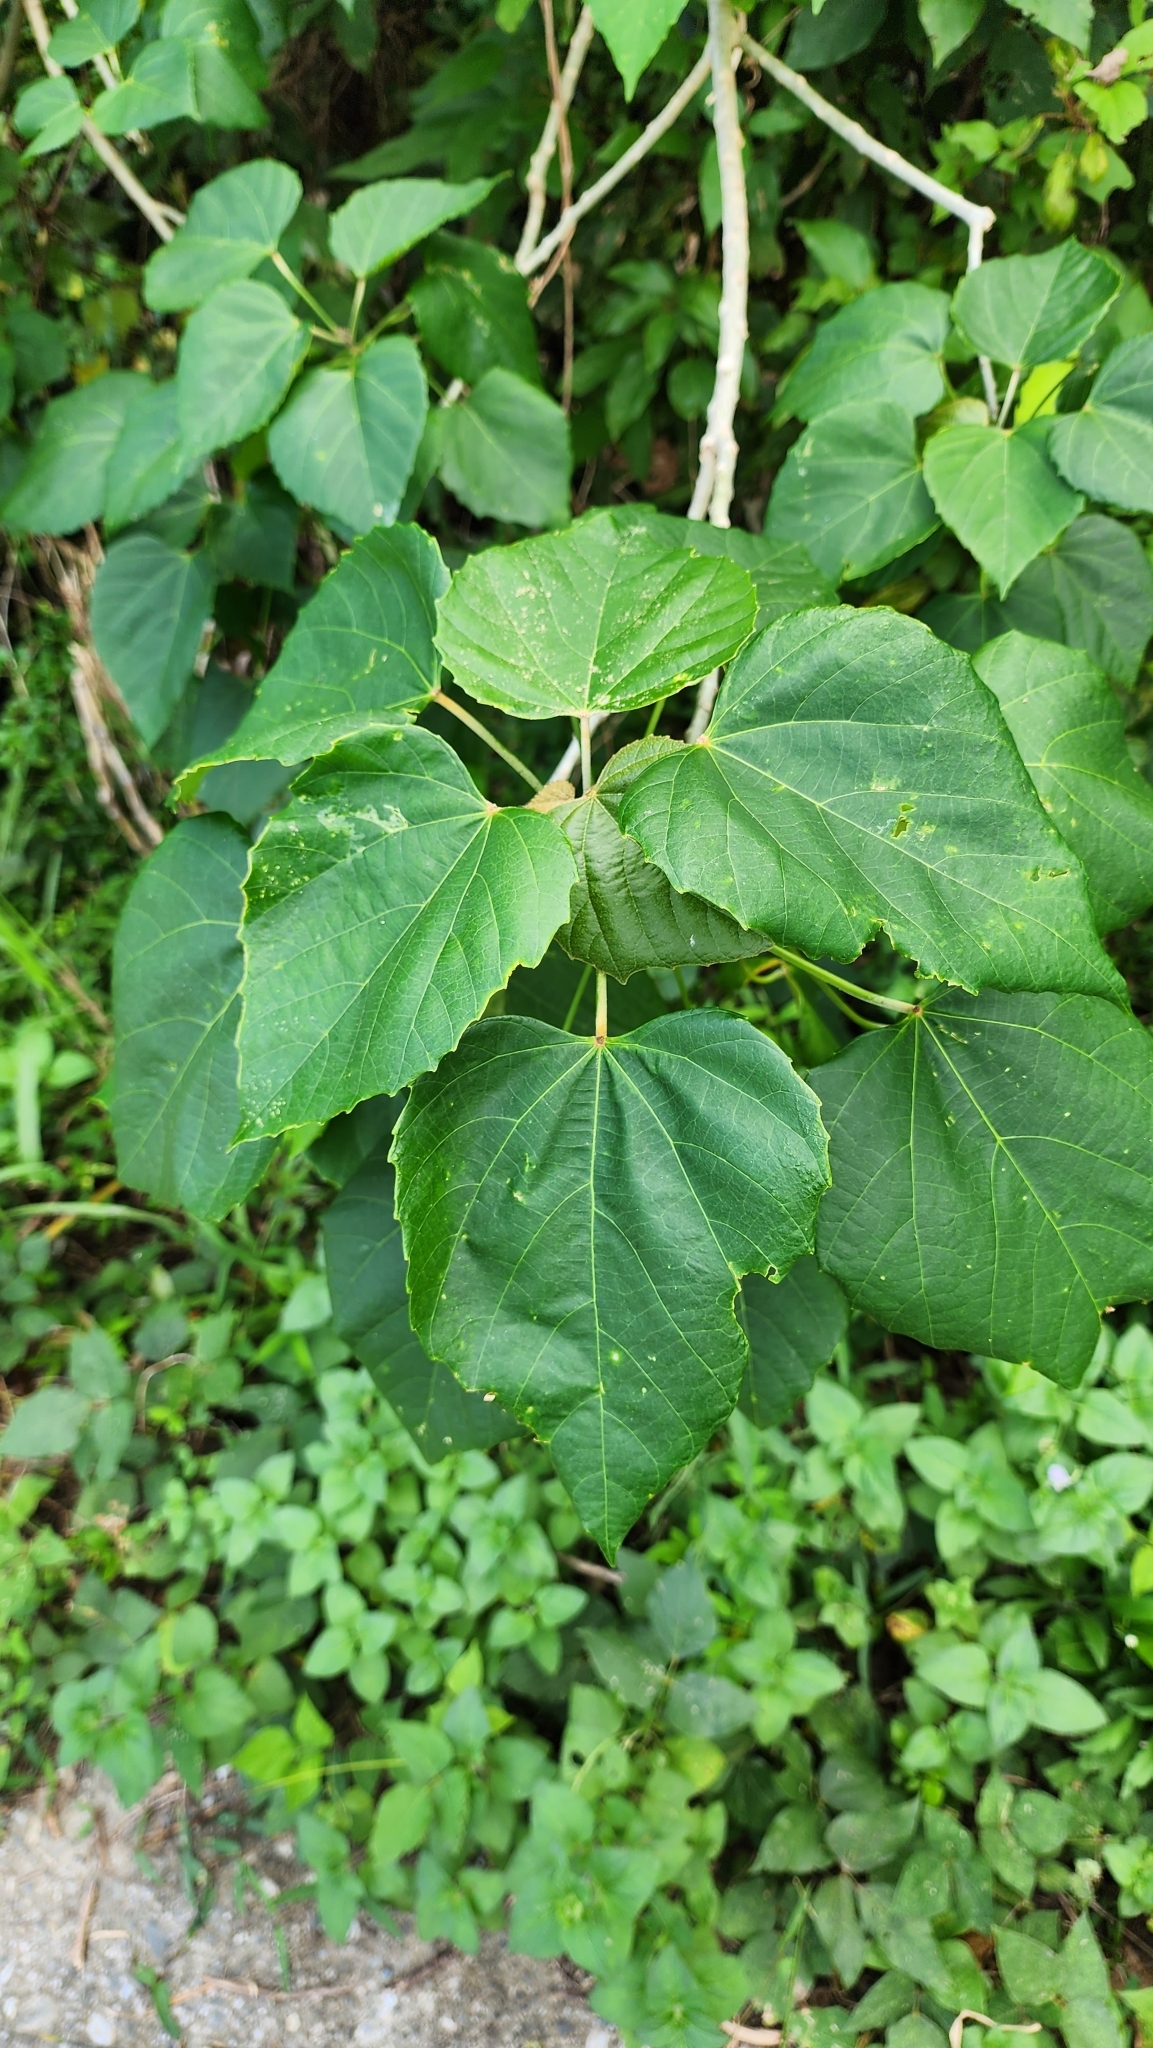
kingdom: Plantae
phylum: Tracheophyta
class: Magnoliopsida
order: Malpighiales
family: Euphorbiaceae
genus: Melanolepis
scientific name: Melanolepis multiglandulosa
